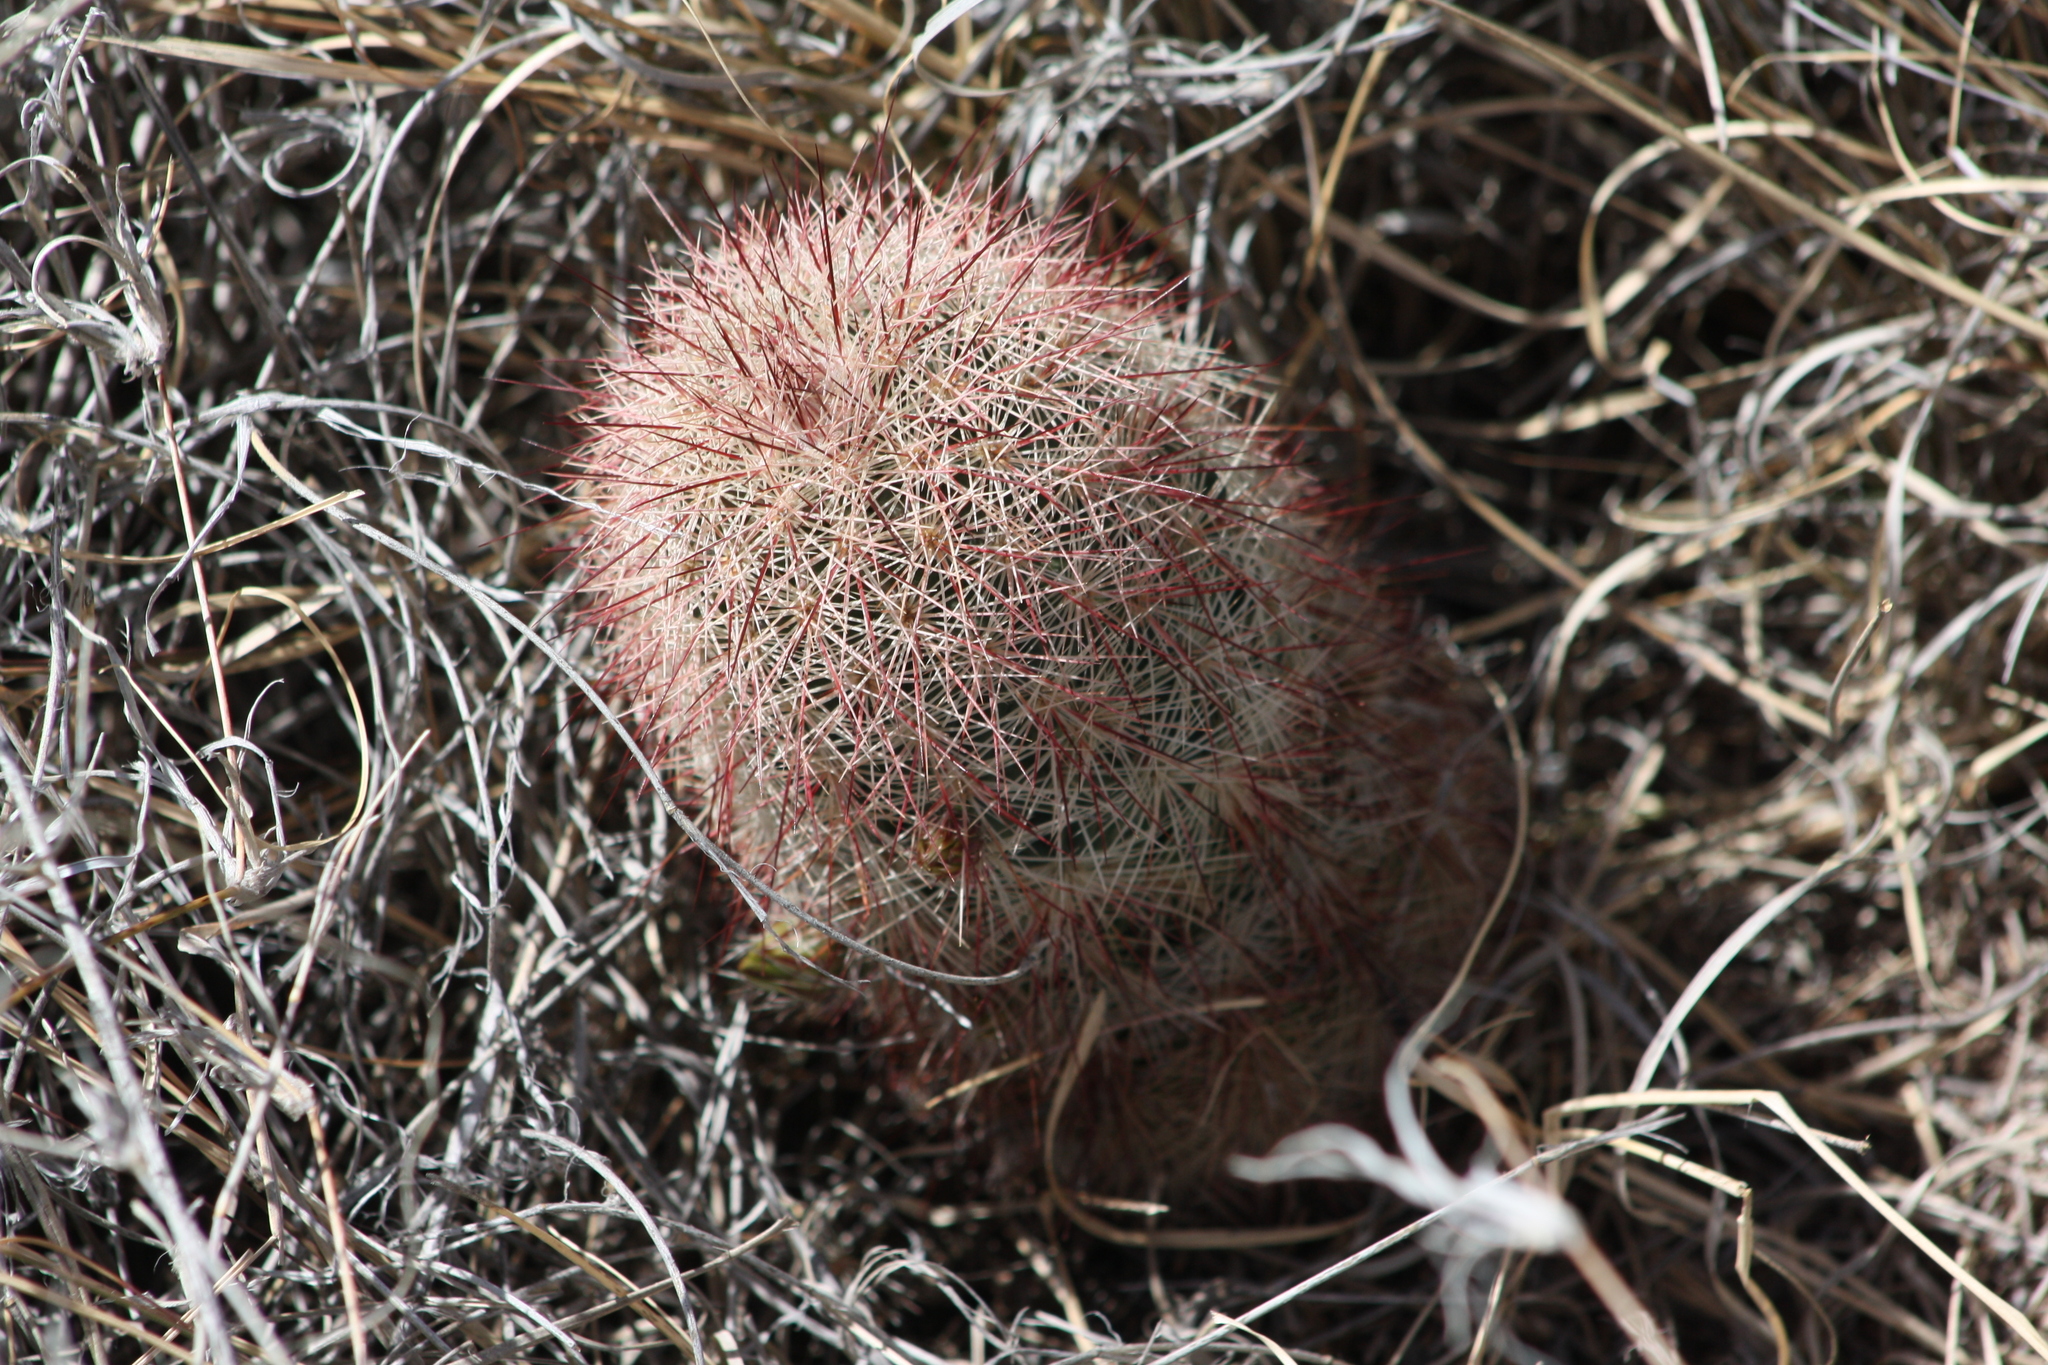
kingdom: Plantae
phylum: Tracheophyta
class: Magnoliopsida
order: Caryophyllales
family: Cactaceae
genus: Echinocereus
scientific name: Echinocereus russanthus
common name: Brownspine hedgehog cactus
